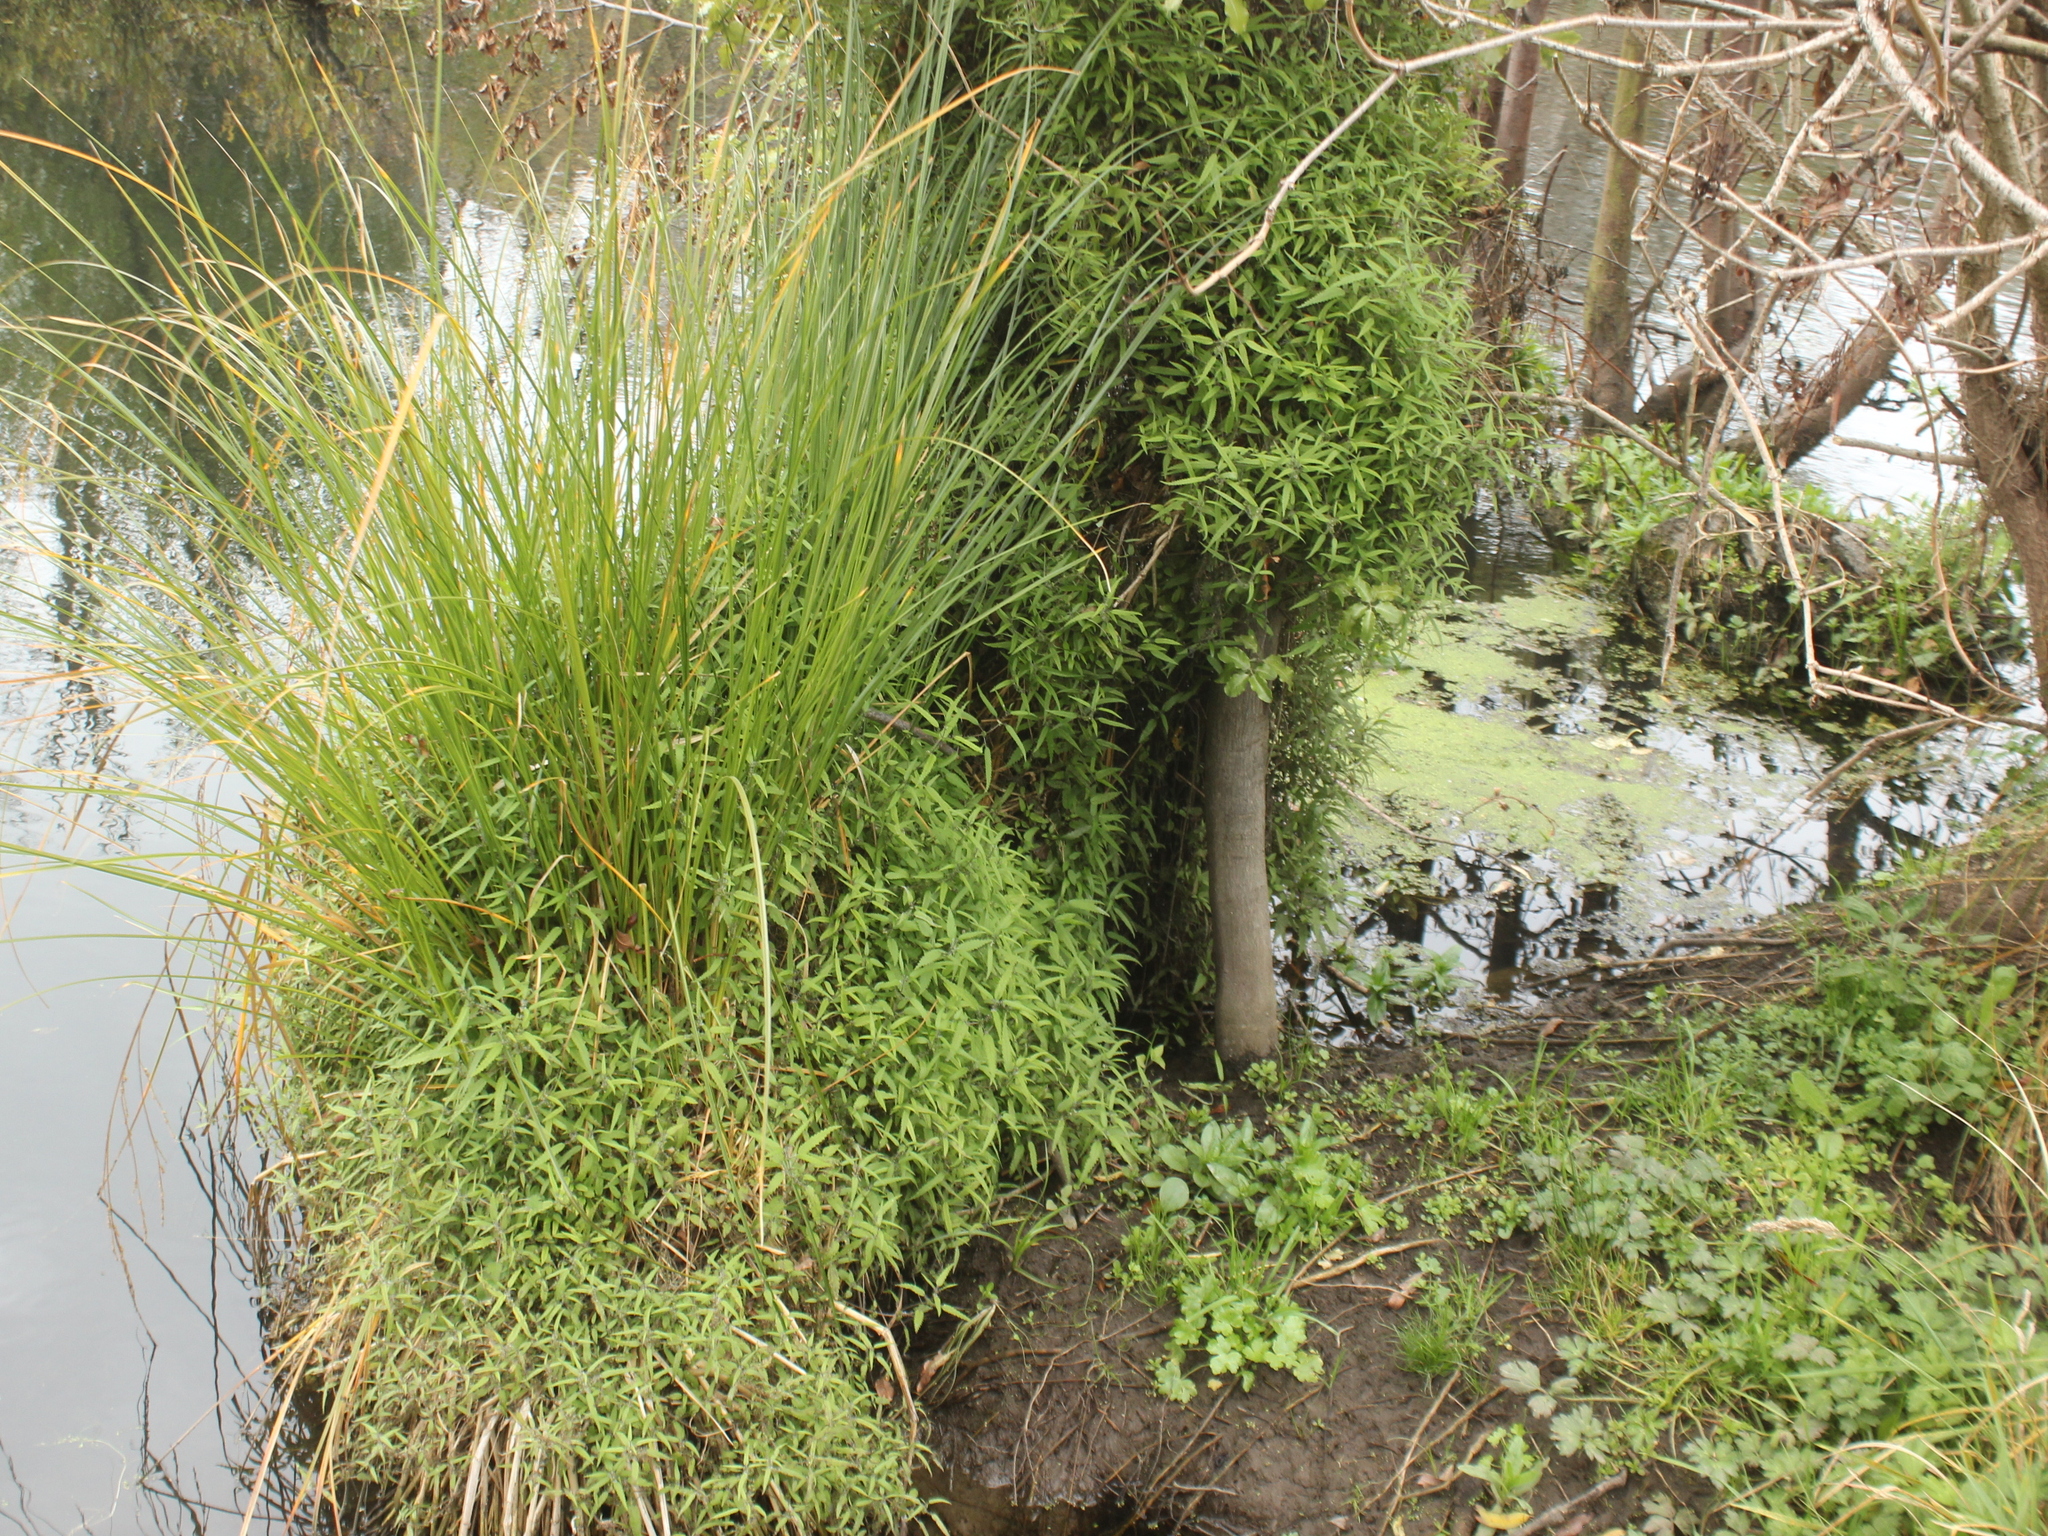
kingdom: Plantae
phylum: Tracheophyta
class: Magnoliopsida
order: Rosales
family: Urticaceae
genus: Urtica
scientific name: Urtica perconfusa
